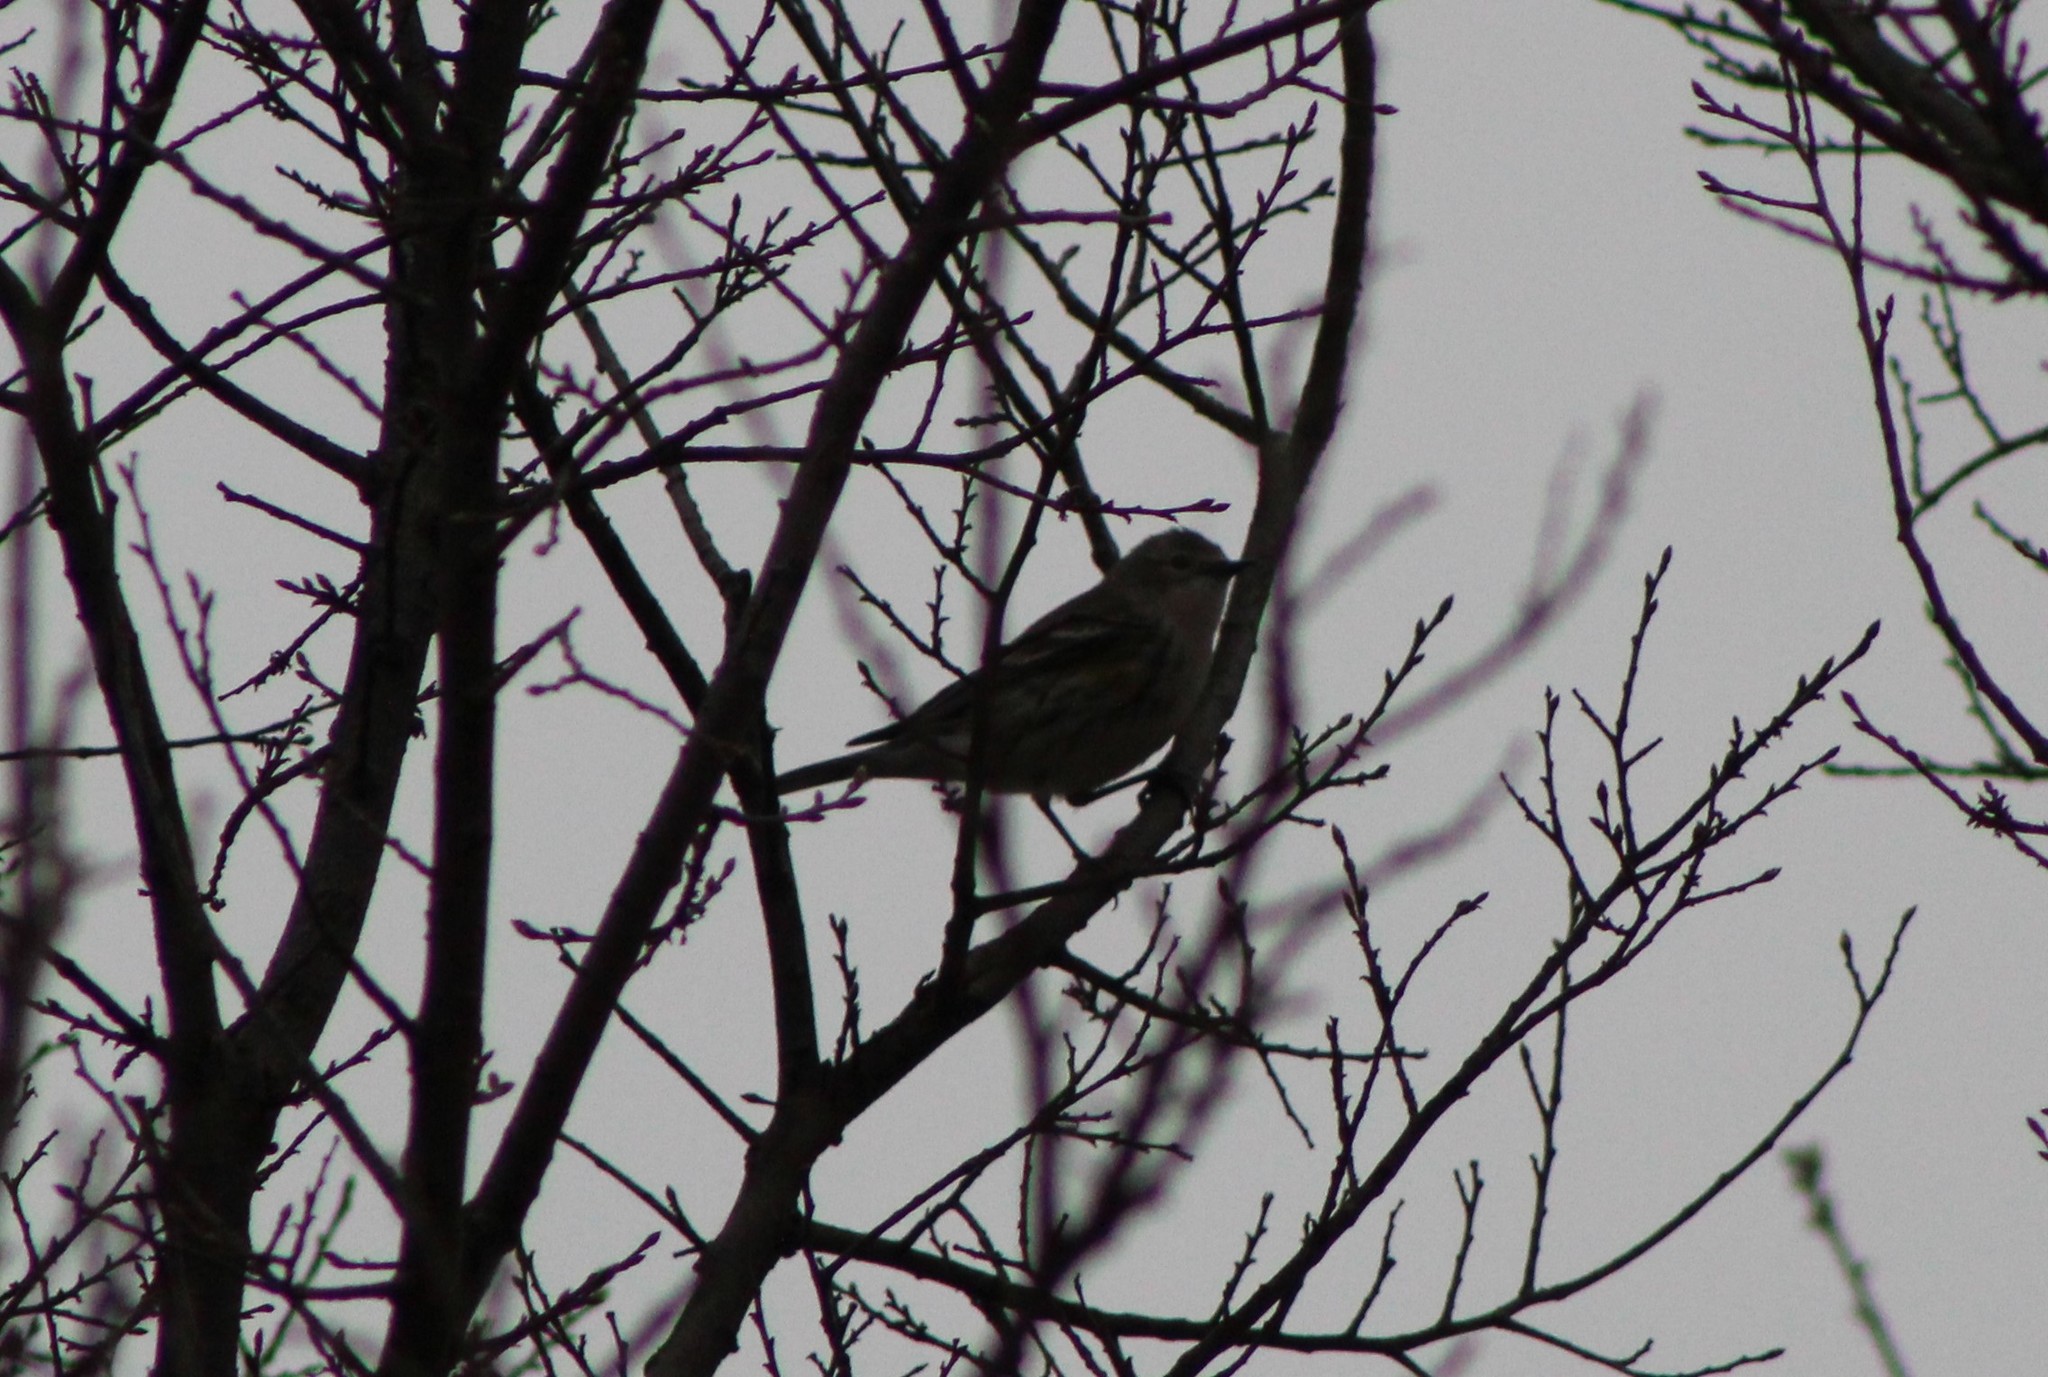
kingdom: Animalia
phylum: Chordata
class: Aves
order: Passeriformes
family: Parulidae
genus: Setophaga
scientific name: Setophaga coronata
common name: Myrtle warbler
